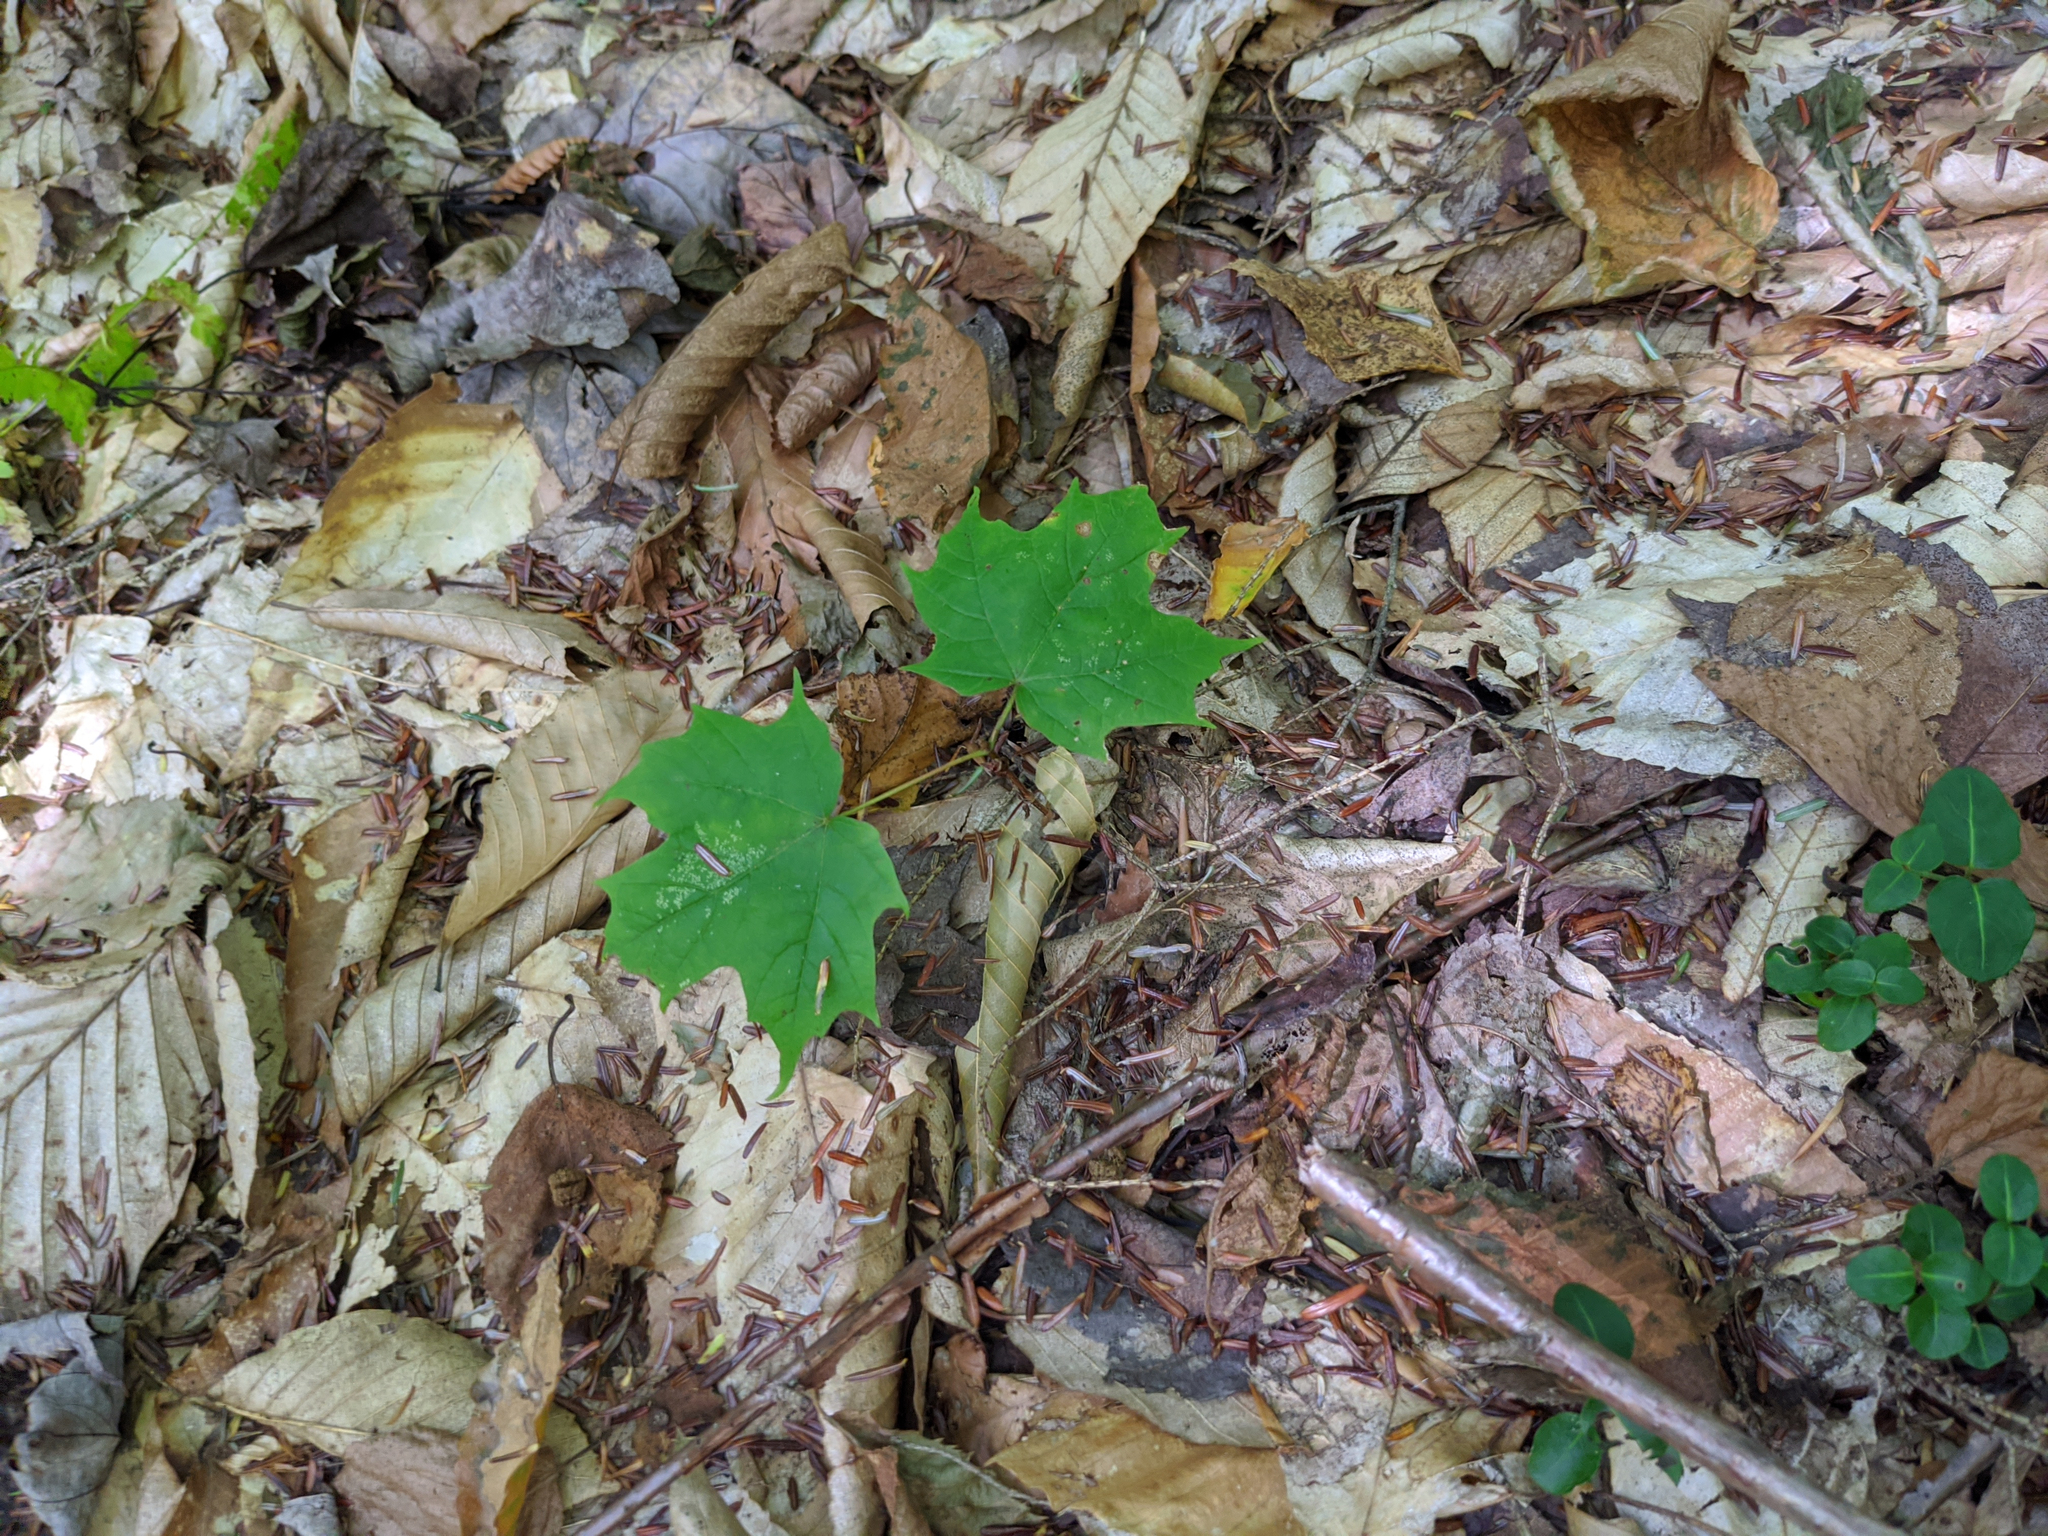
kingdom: Plantae
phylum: Tracheophyta
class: Magnoliopsida
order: Sapindales
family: Sapindaceae
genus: Acer
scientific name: Acer saccharum
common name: Sugar maple
